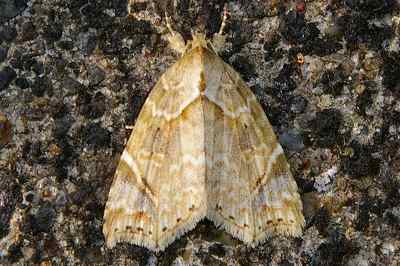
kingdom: Animalia
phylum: Arthropoda
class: Insecta
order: Lepidoptera
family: Erebidae
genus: Olulis
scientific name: Olulis
